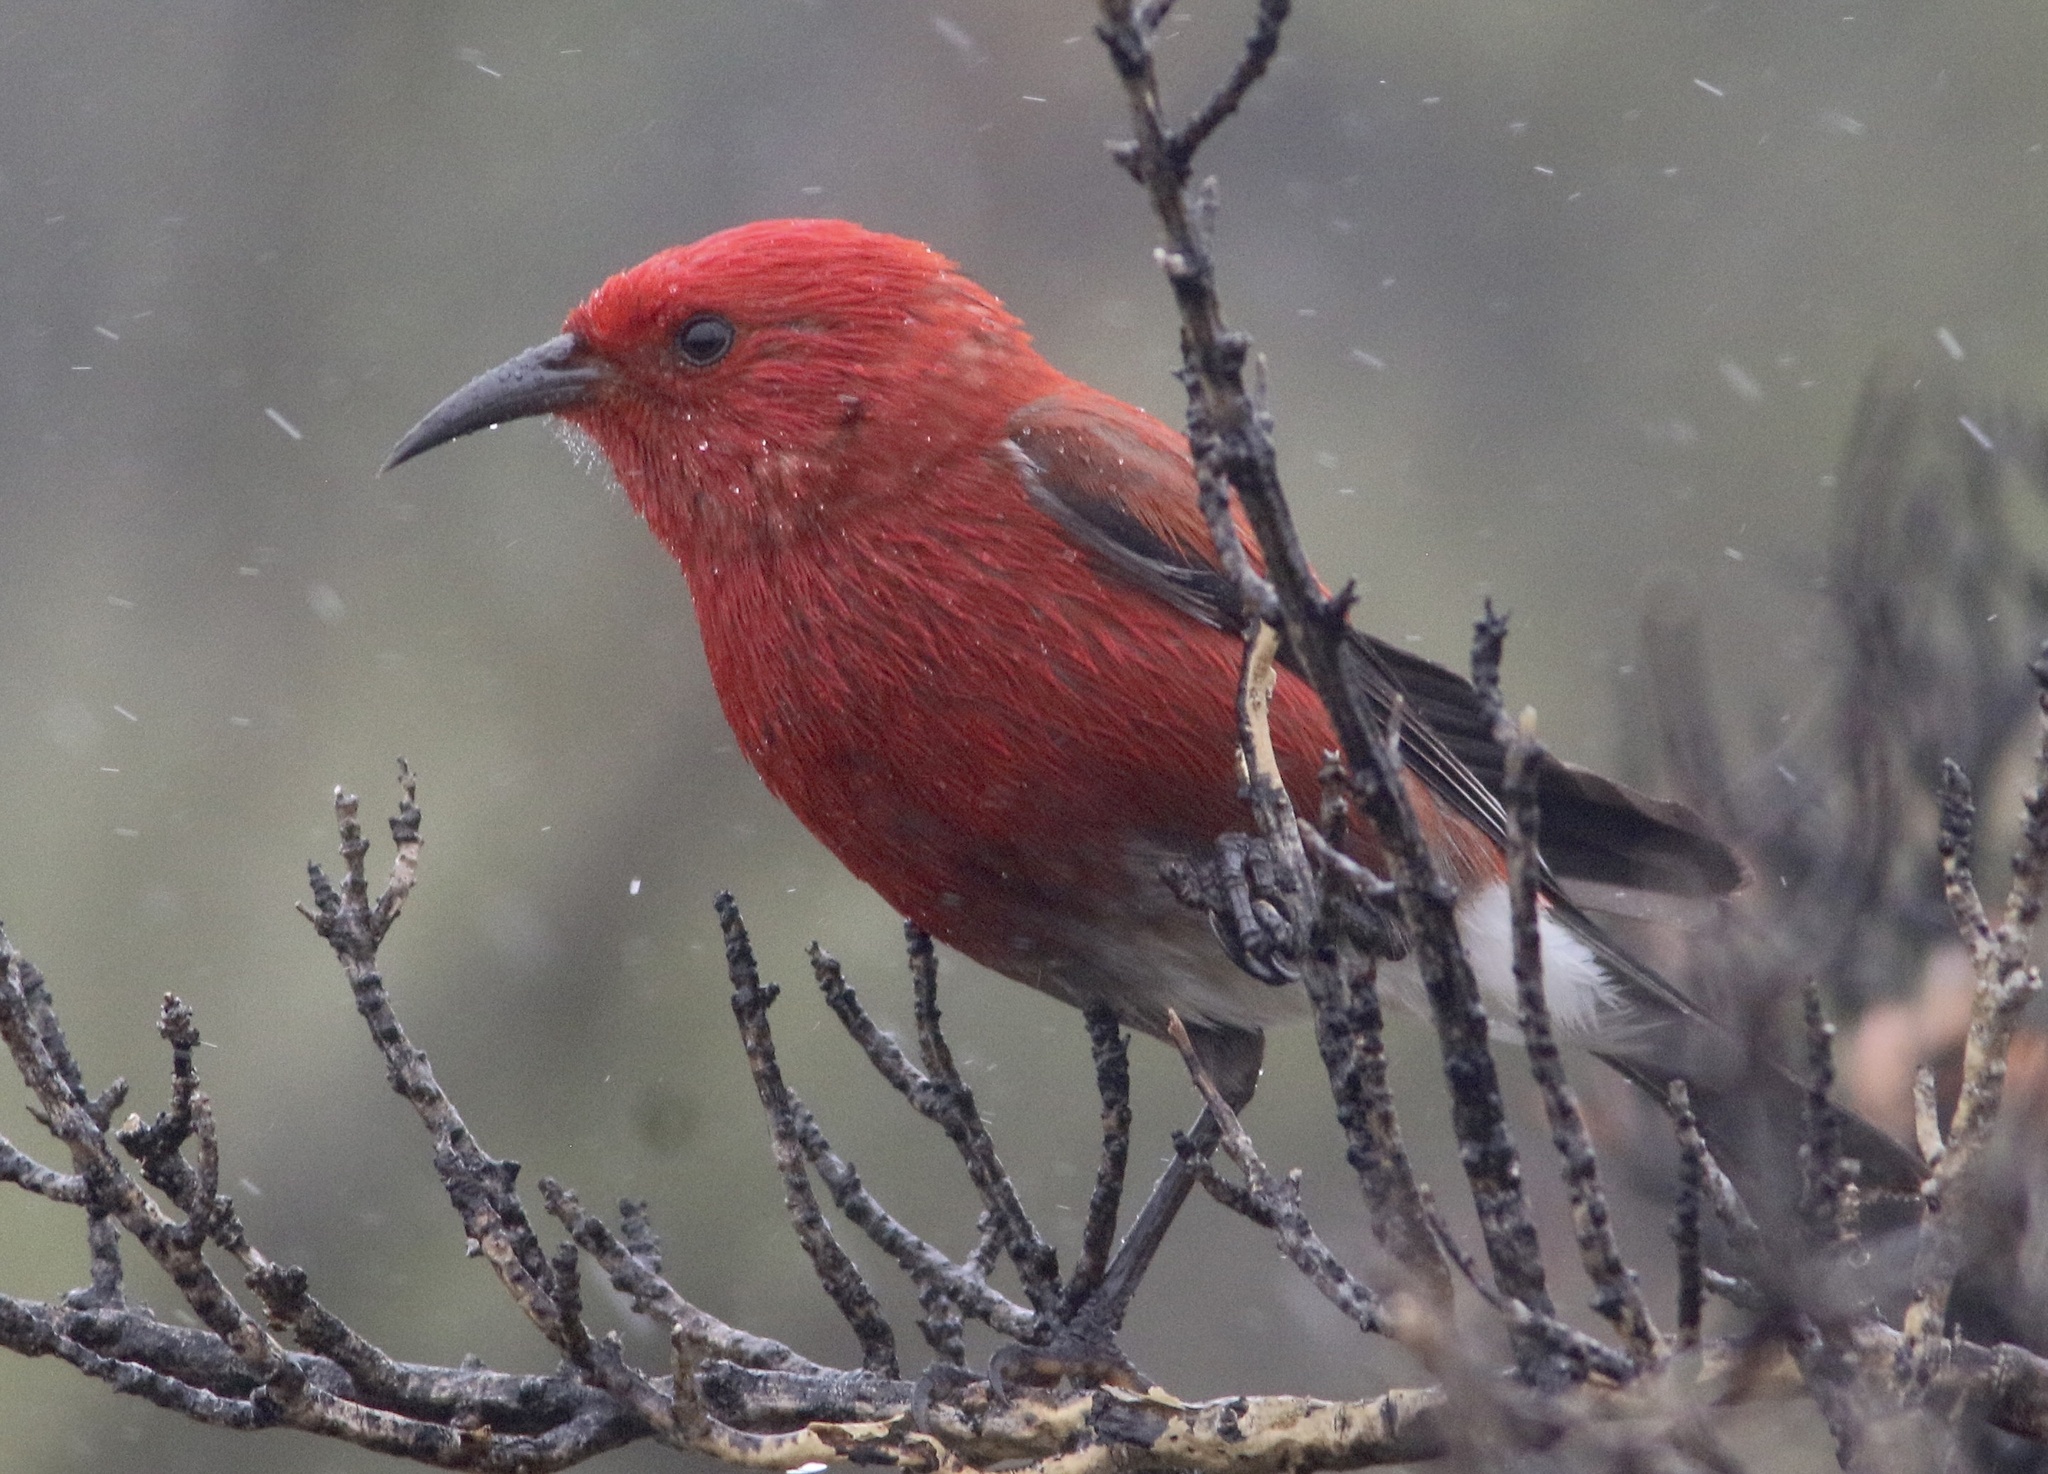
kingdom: Animalia
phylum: Chordata
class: Aves
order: Passeriformes
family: Fringillidae
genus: Himatione
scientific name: Himatione sanguinea
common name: Apapane
